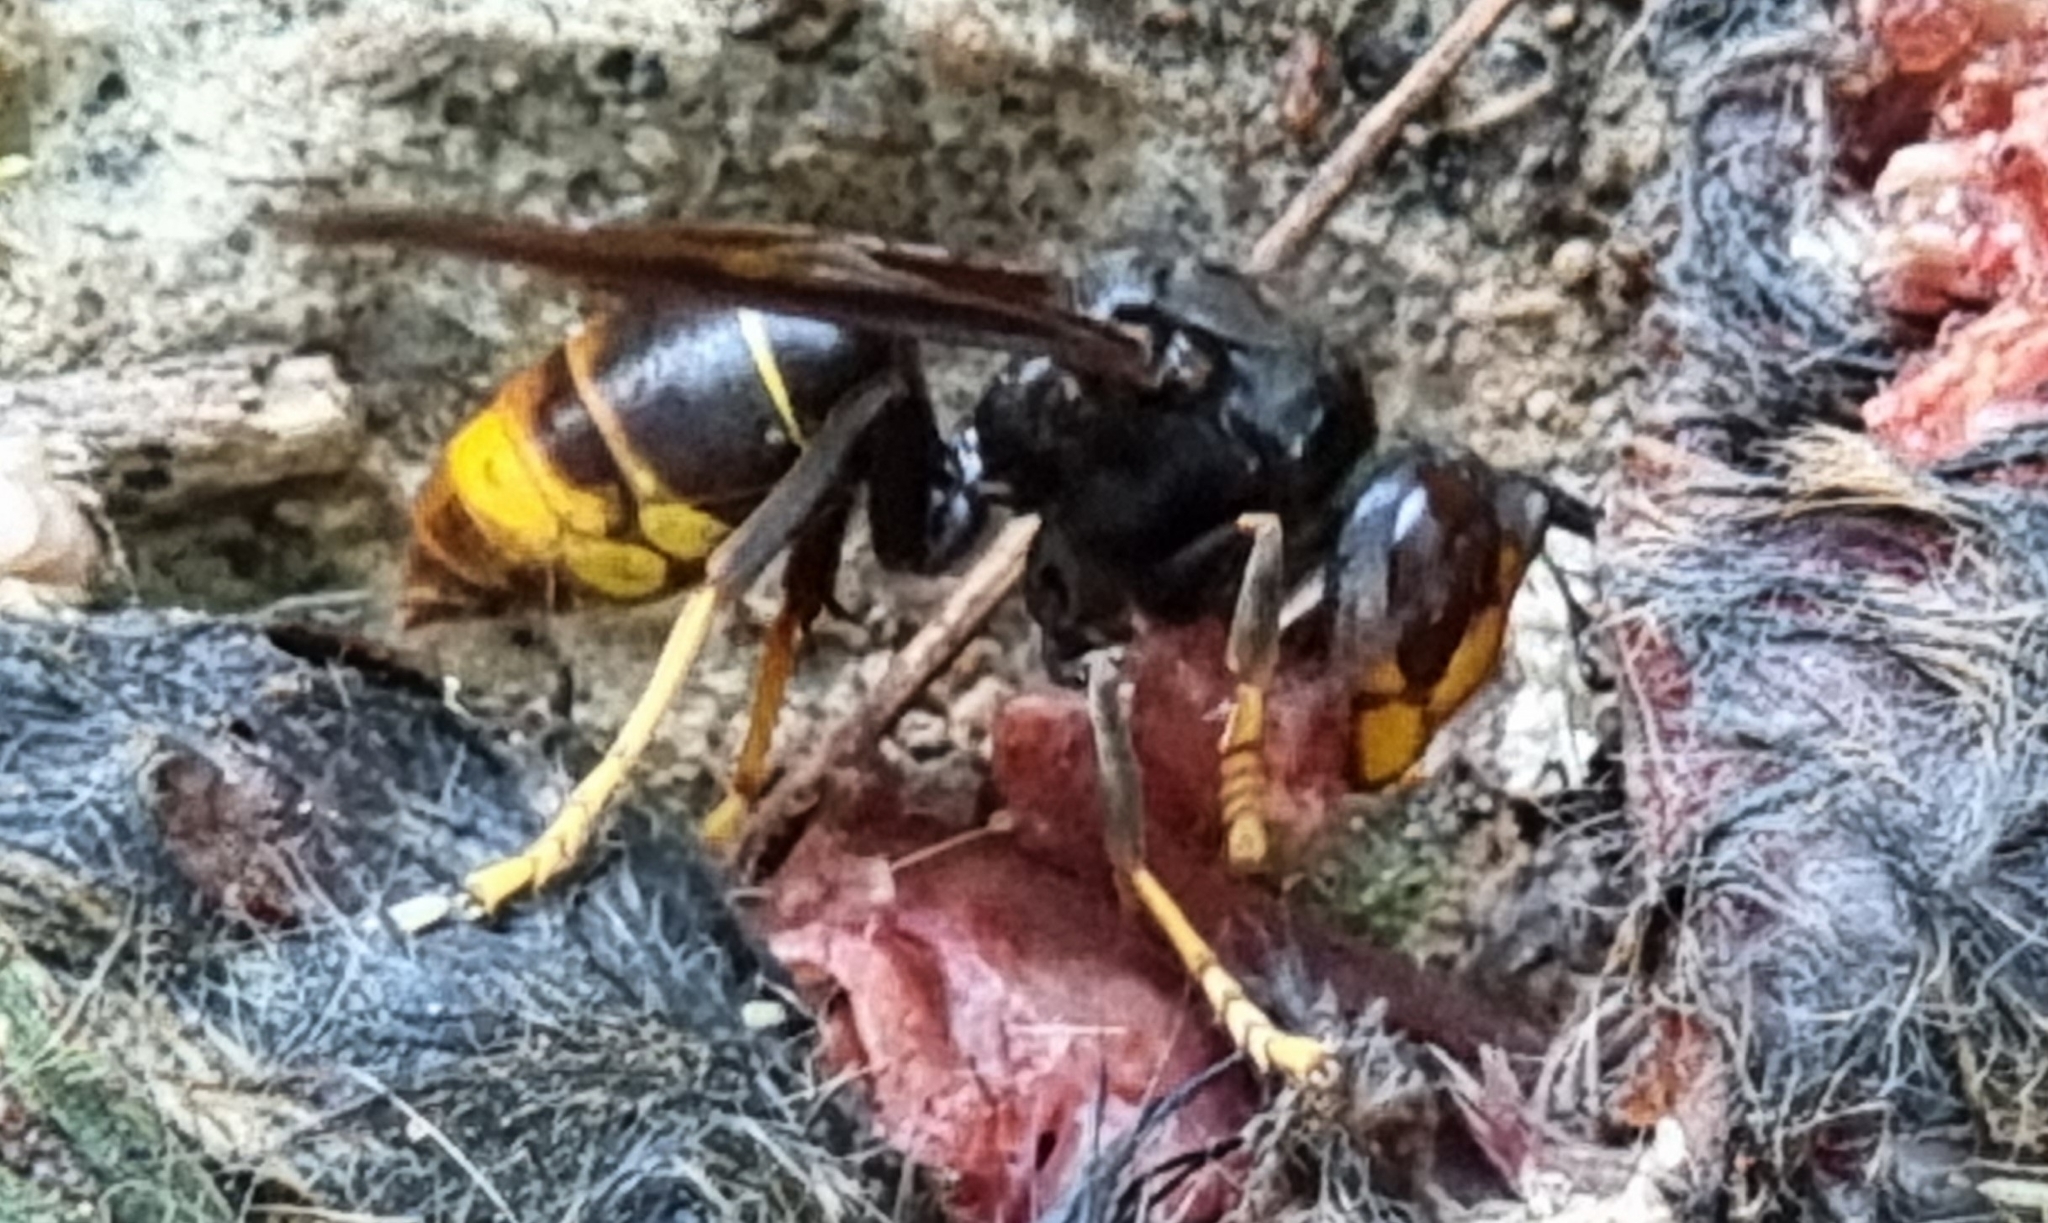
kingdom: Animalia
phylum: Arthropoda
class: Insecta
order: Hymenoptera
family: Vespidae
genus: Vespa
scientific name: Vespa velutina
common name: Asian hornet
